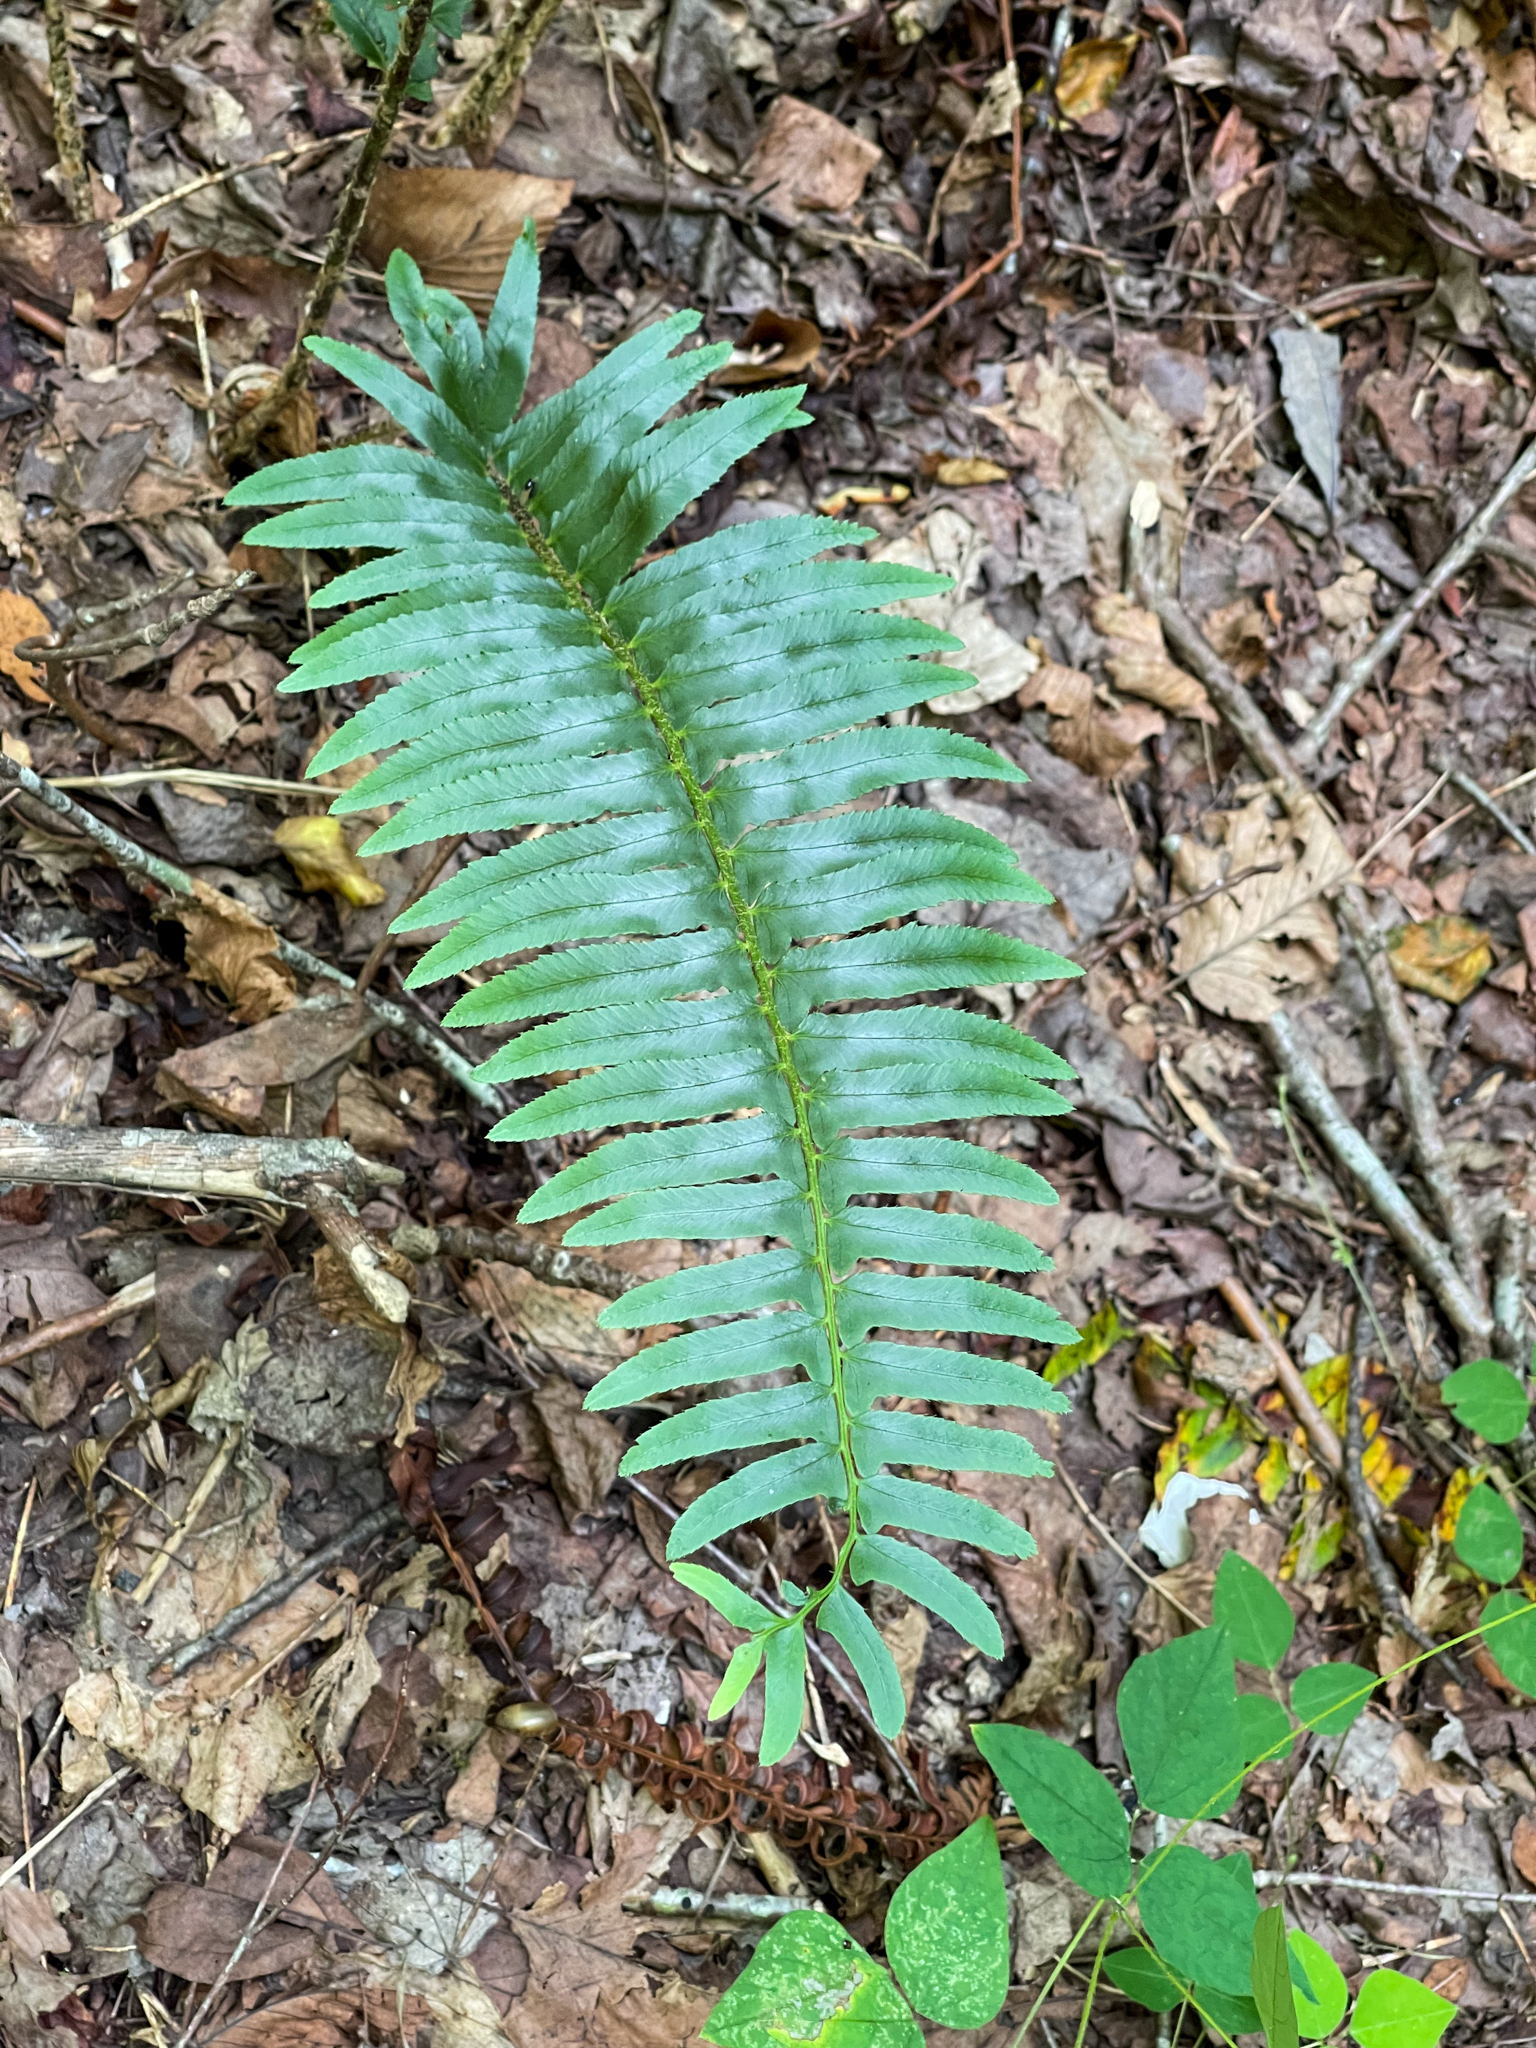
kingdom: Plantae
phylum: Tracheophyta
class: Polypodiopsida
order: Polypodiales
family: Dryopteridaceae
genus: Polystichum
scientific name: Polystichum acrostichoides
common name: Christmas fern
